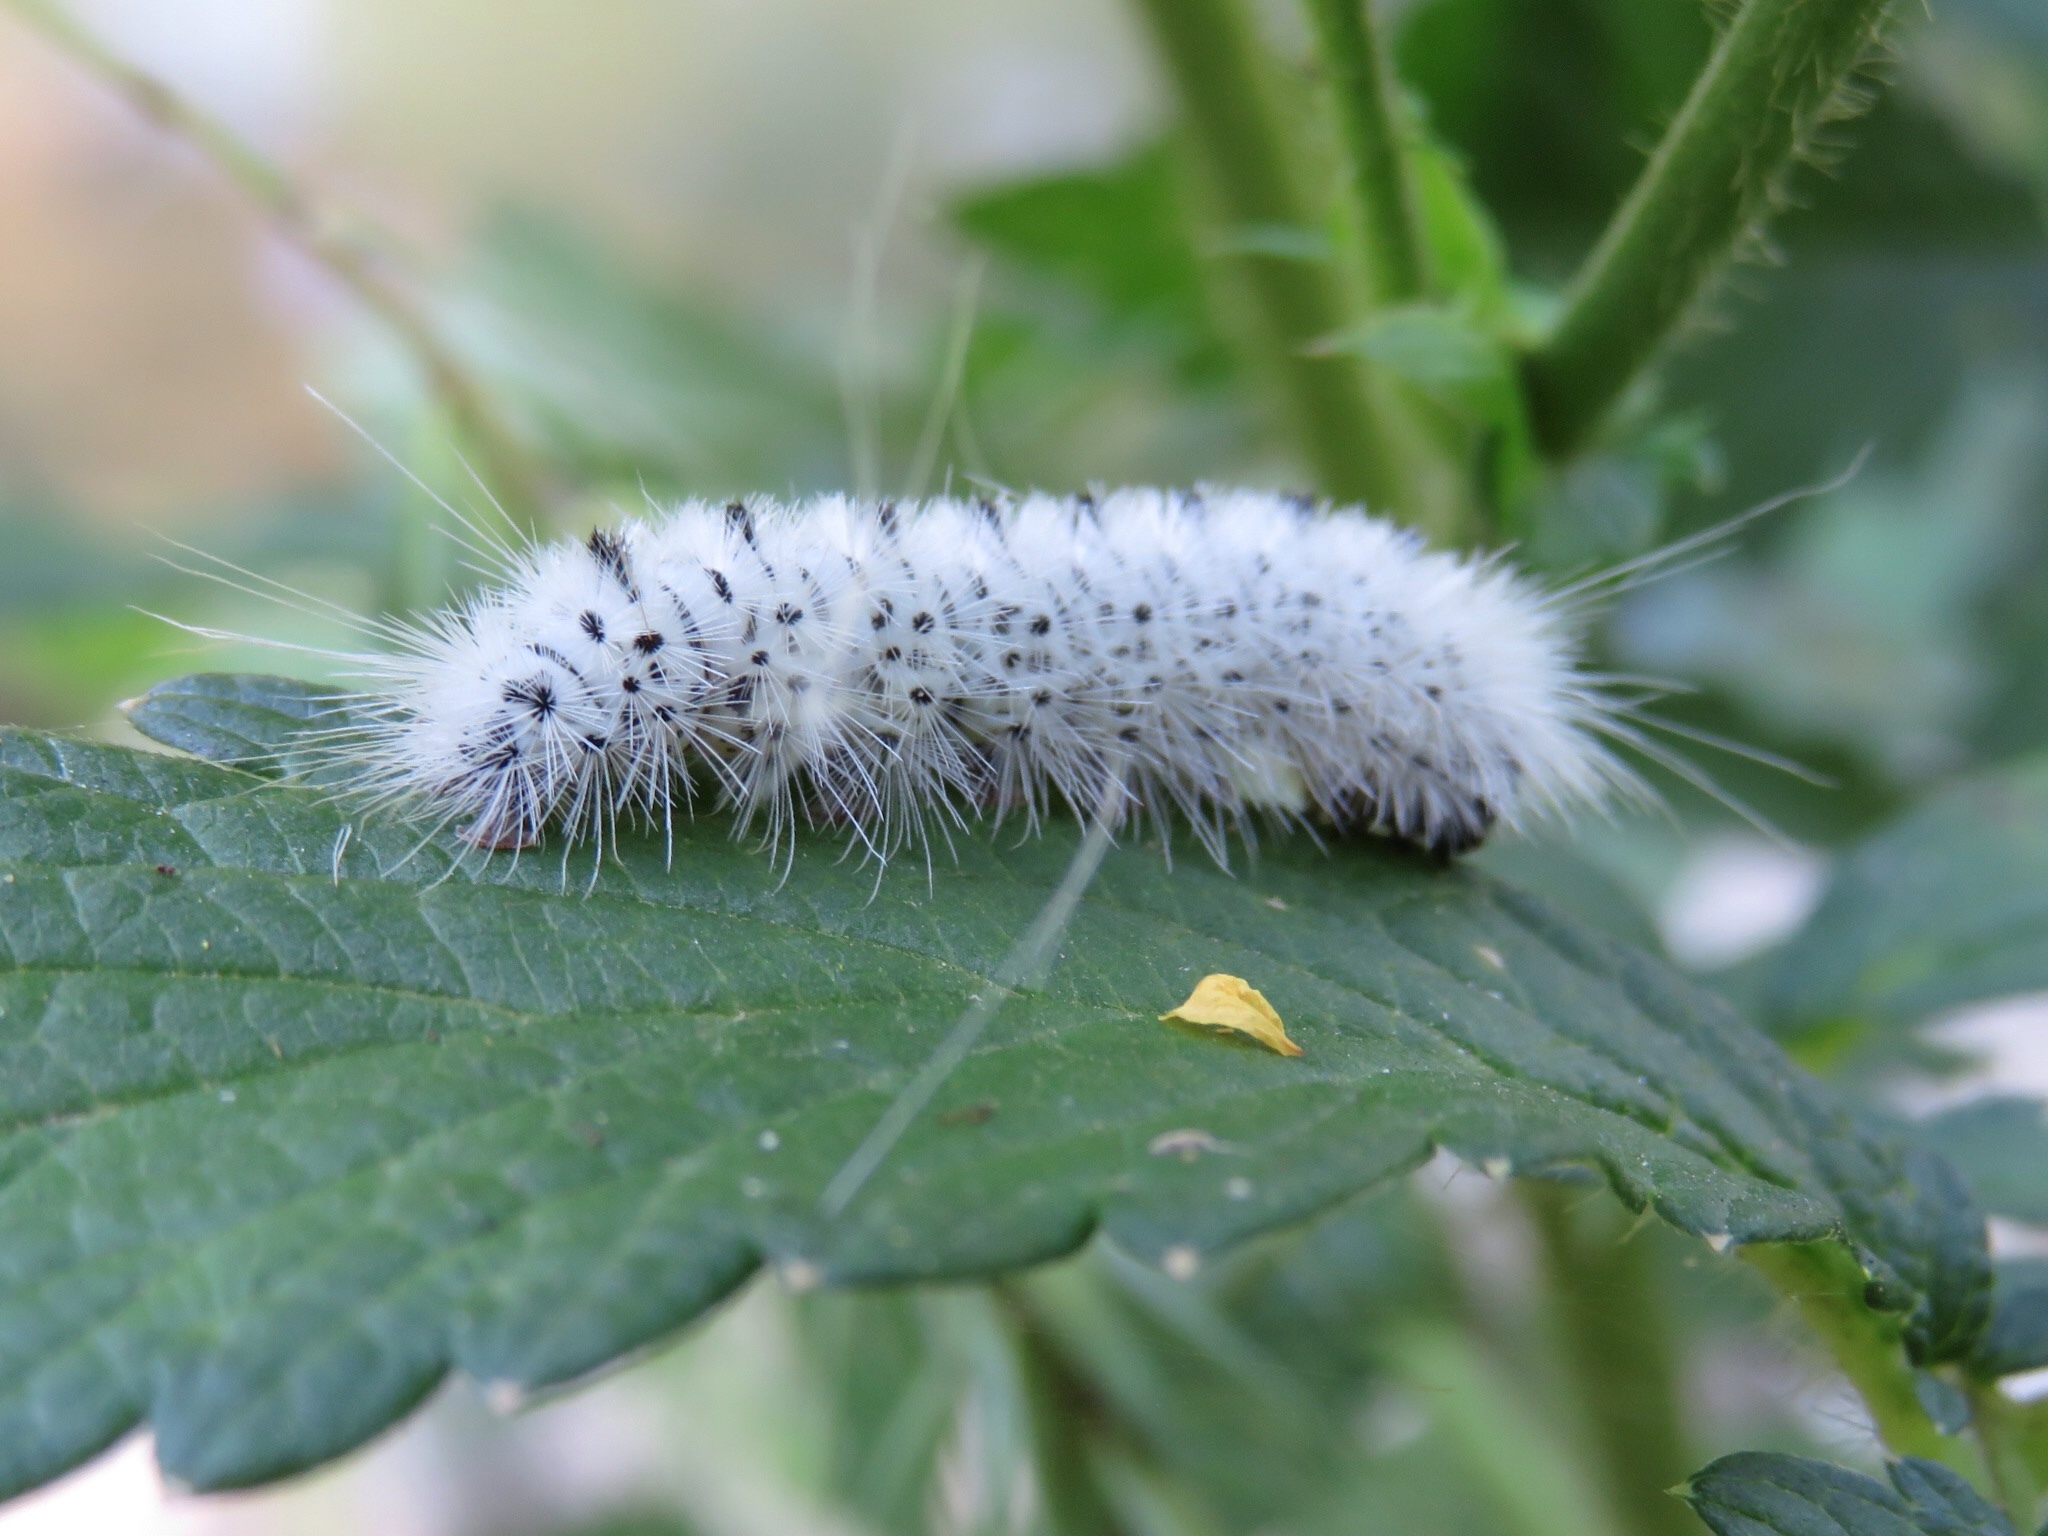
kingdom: Animalia
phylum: Arthropoda
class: Insecta
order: Lepidoptera
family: Erebidae
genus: Lophocampa
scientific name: Lophocampa caryae
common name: Hickory tussock moth
